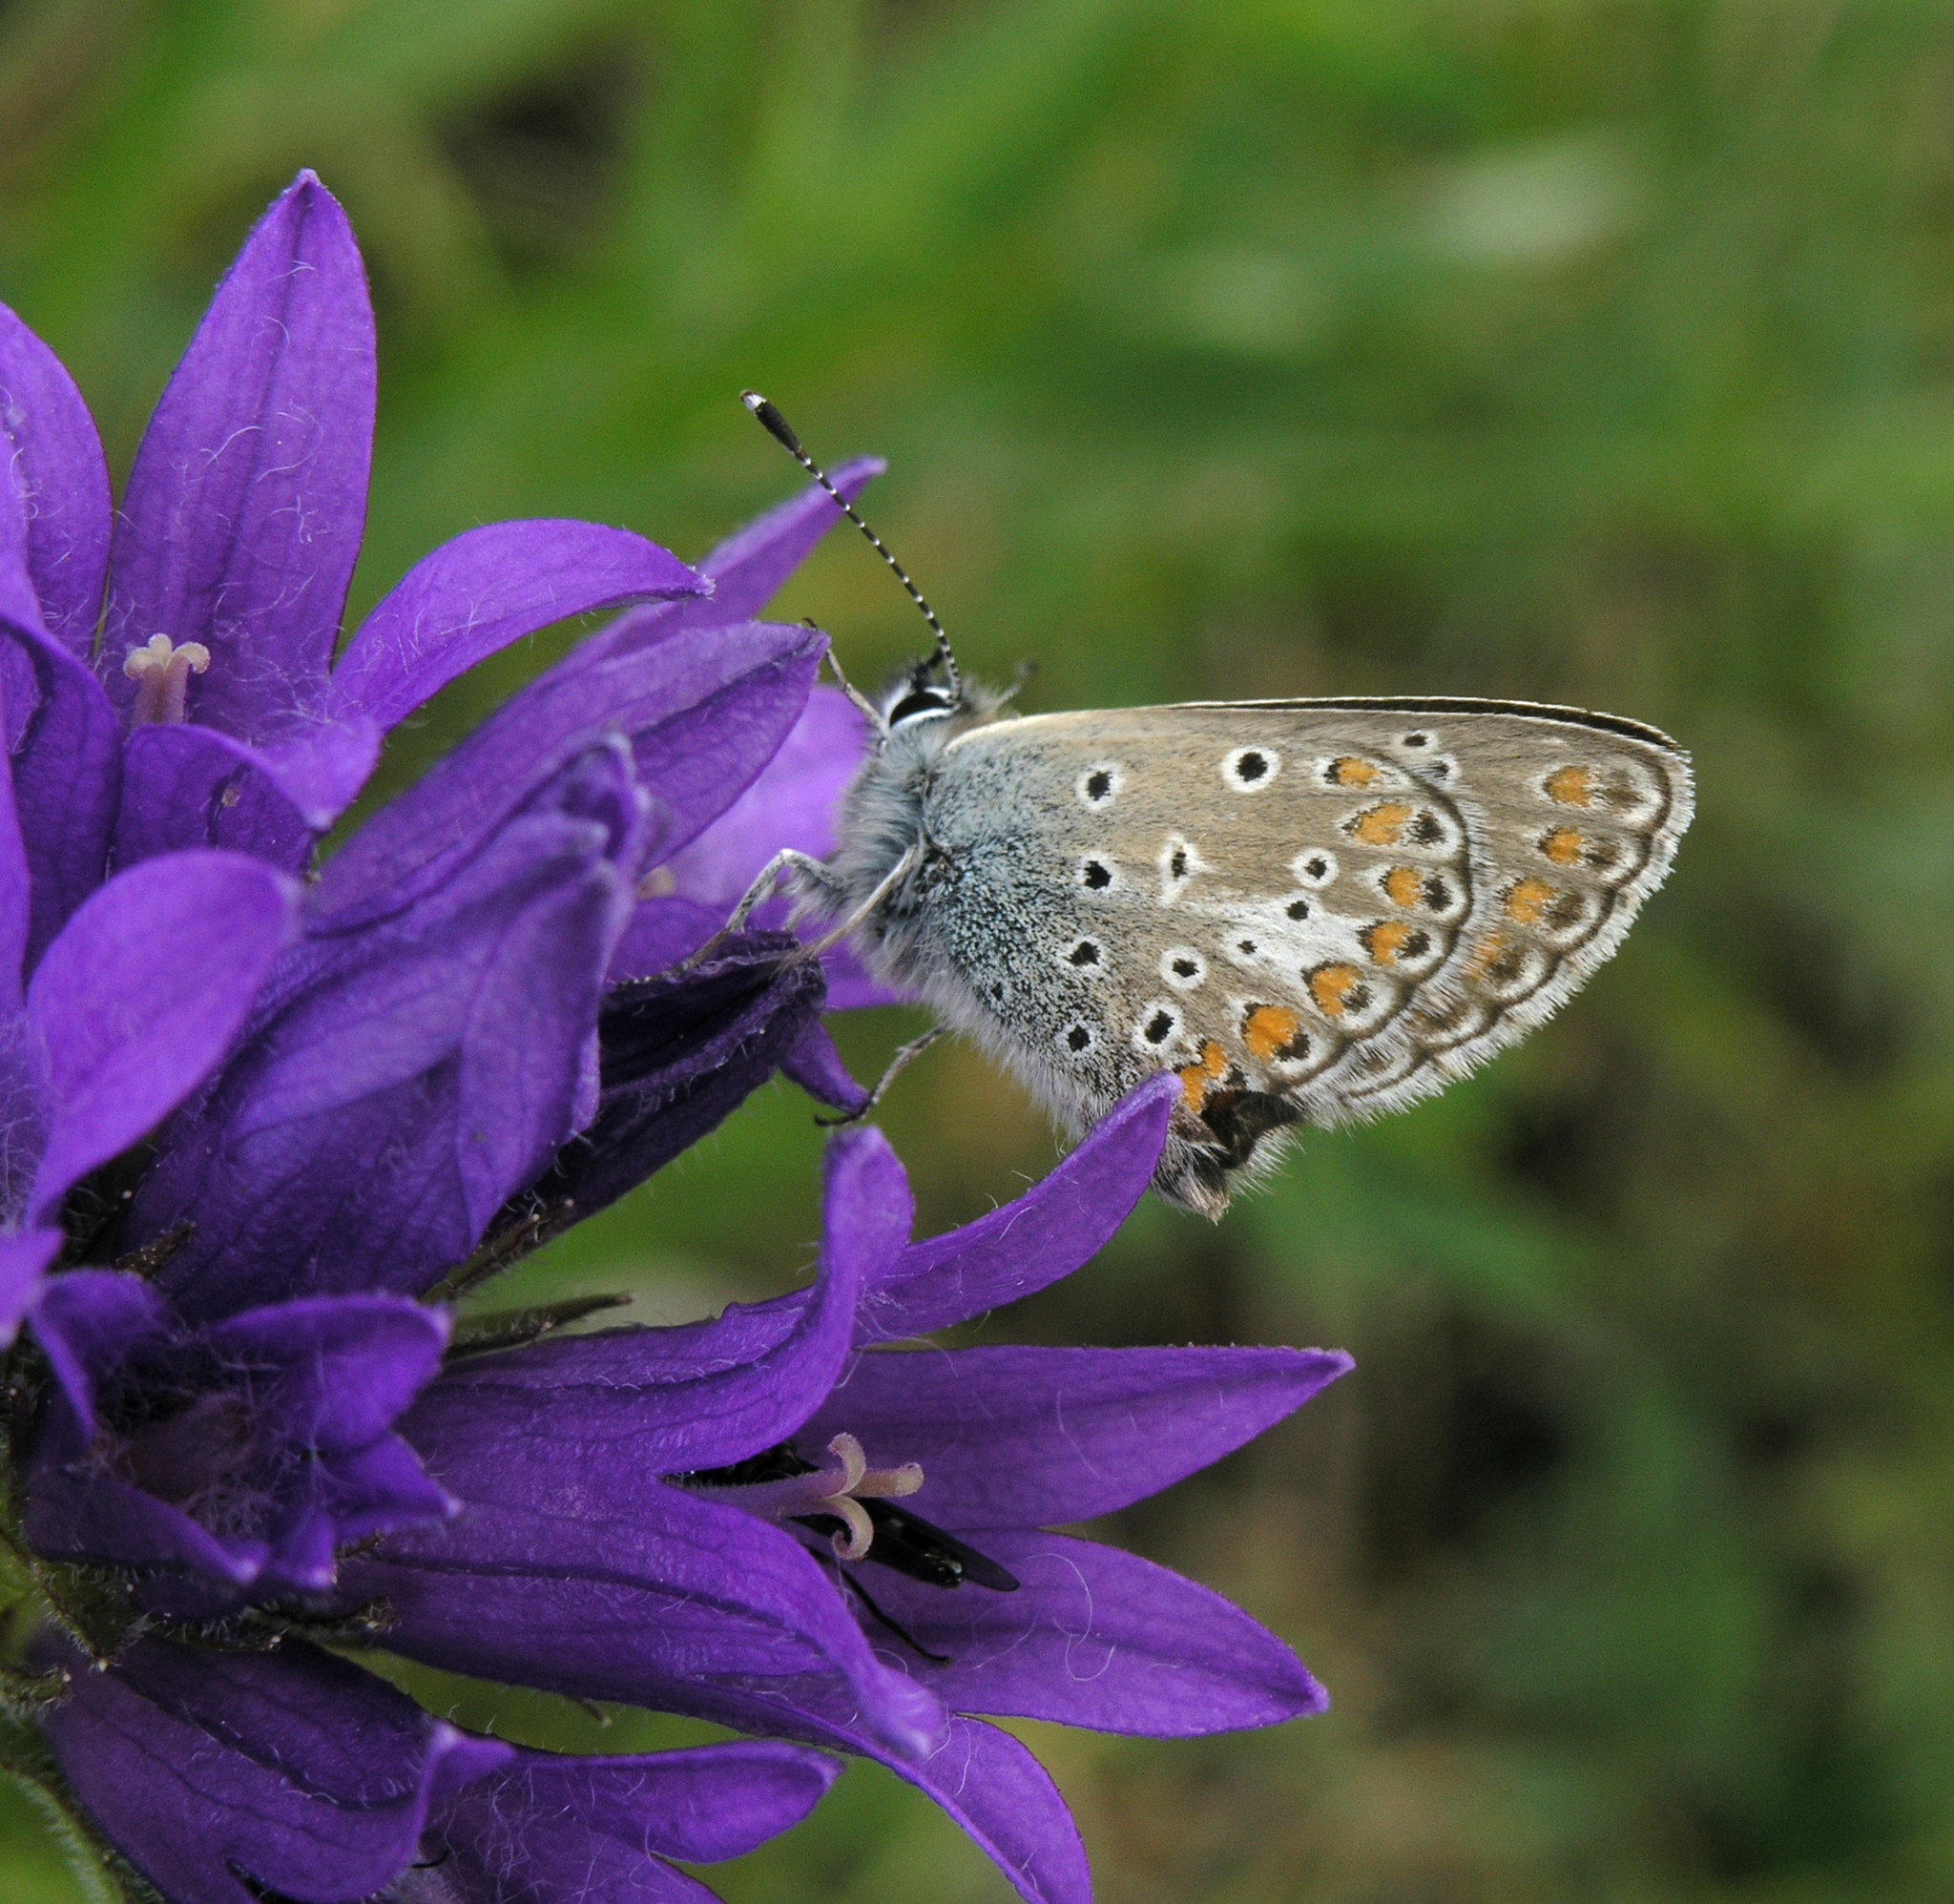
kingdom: Animalia
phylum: Arthropoda
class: Insecta
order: Lepidoptera
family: Lycaenidae
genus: Aricia
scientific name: Aricia artaxerxes
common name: Northern brown argus
